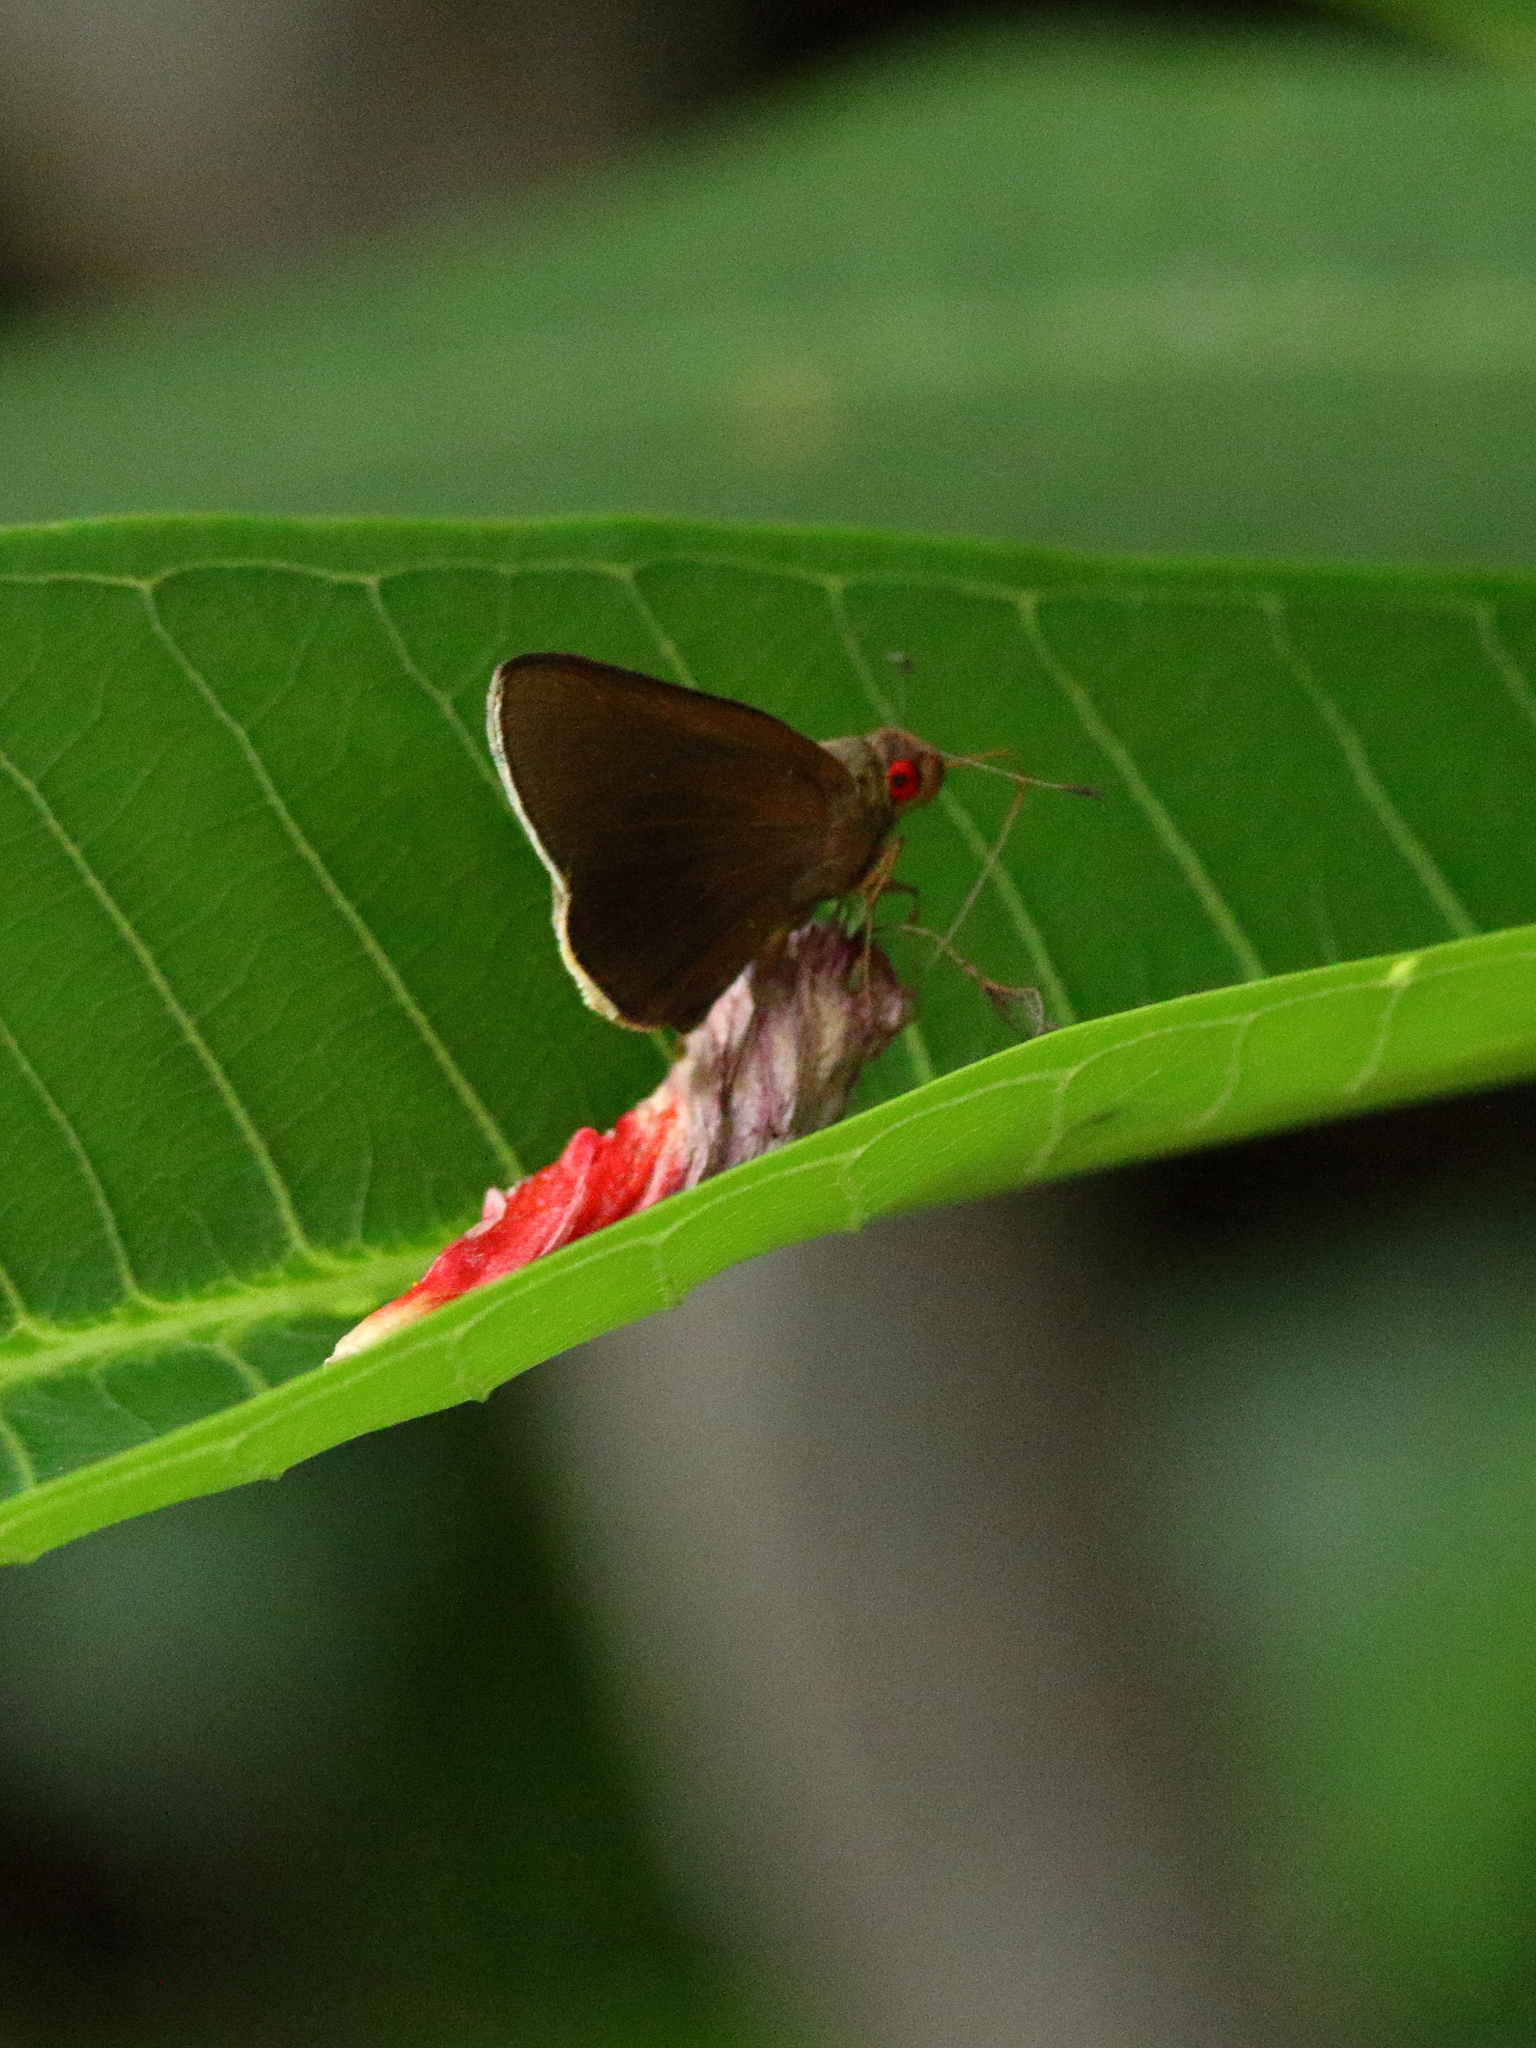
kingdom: Animalia
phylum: Arthropoda
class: Insecta
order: Lepidoptera
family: Hesperiidae
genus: Matapa
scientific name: Matapa aria
